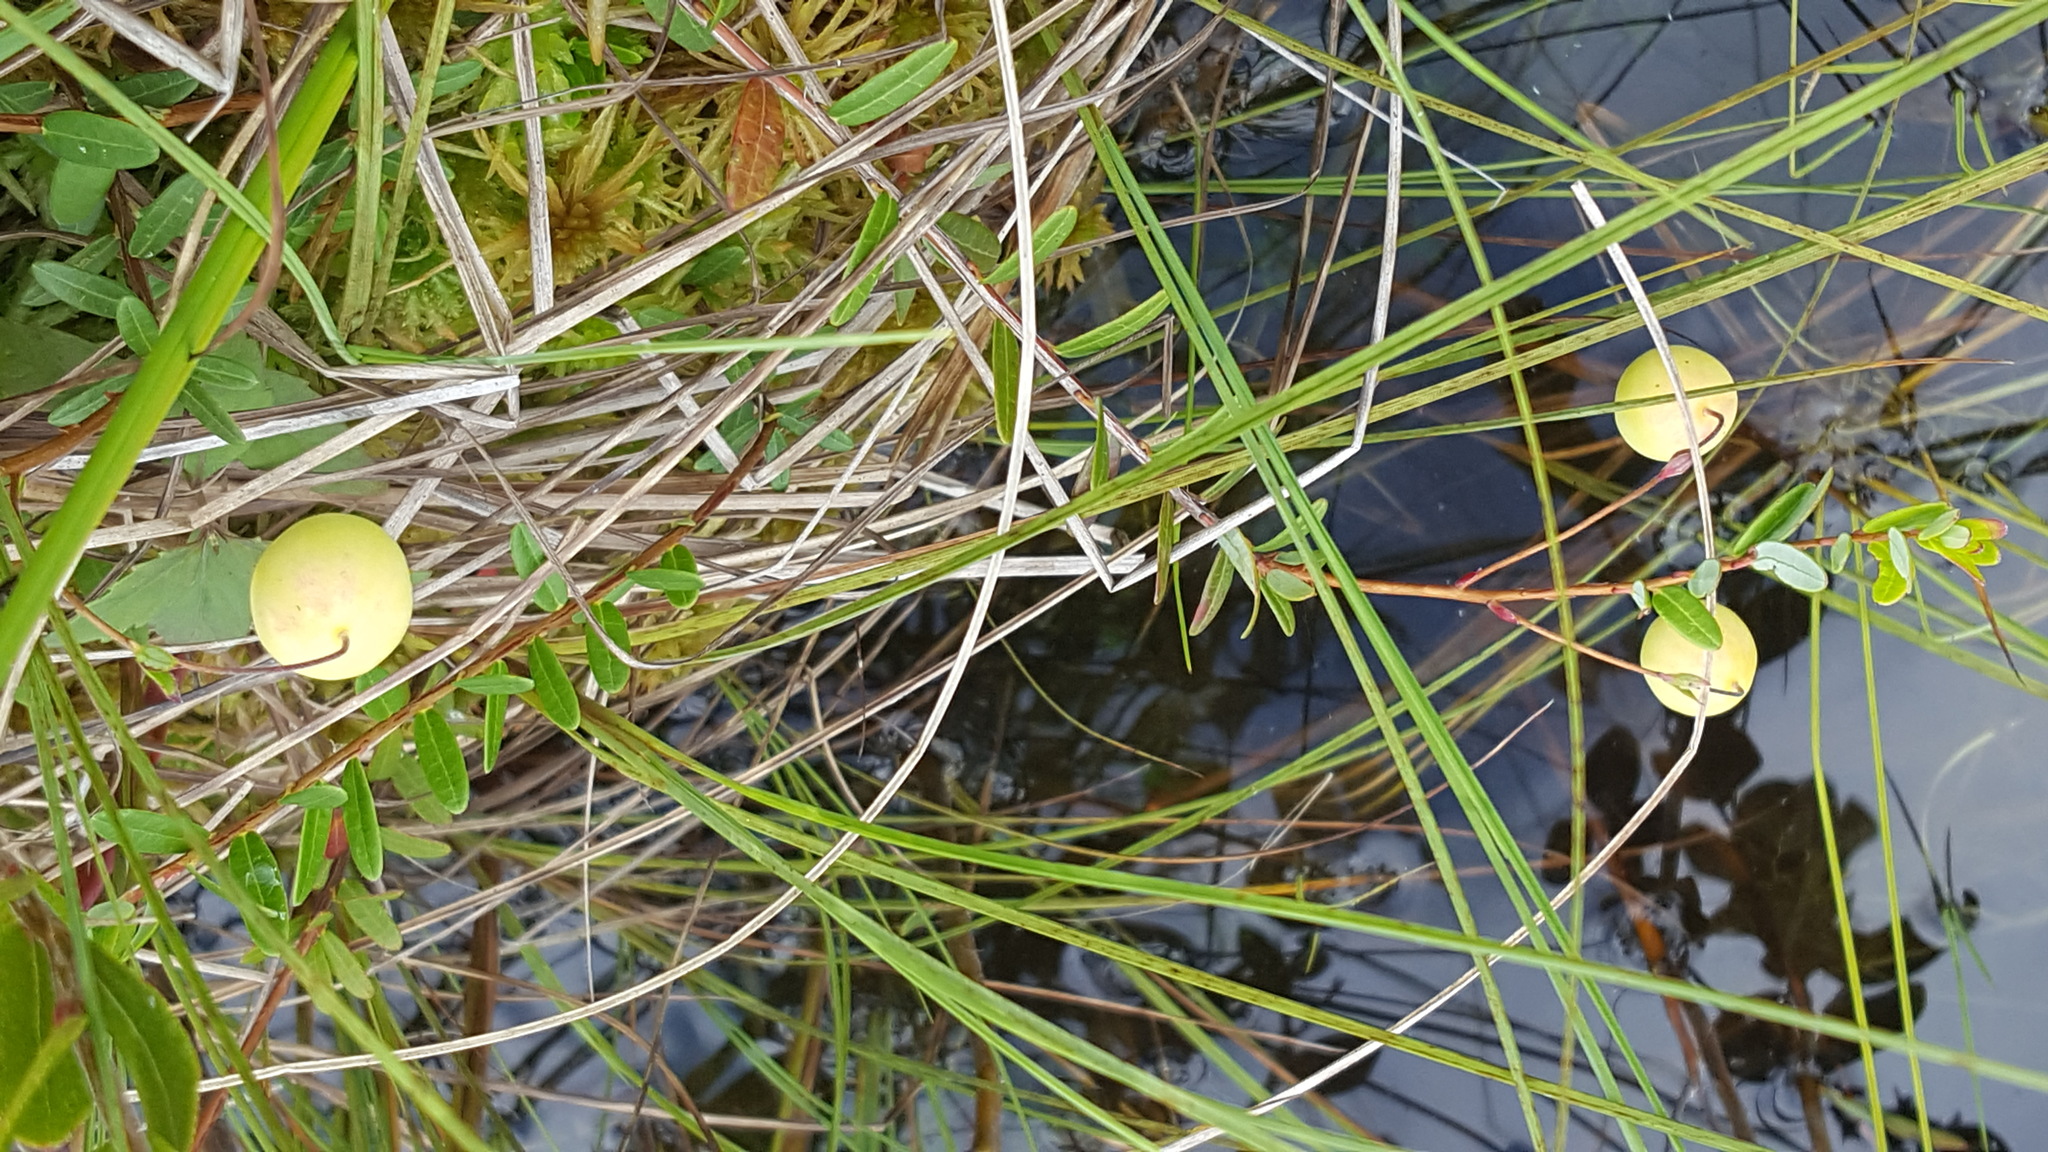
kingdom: Plantae
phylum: Tracheophyta
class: Magnoliopsida
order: Ericales
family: Ericaceae
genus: Vaccinium
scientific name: Vaccinium macrocarpon
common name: American cranberry
